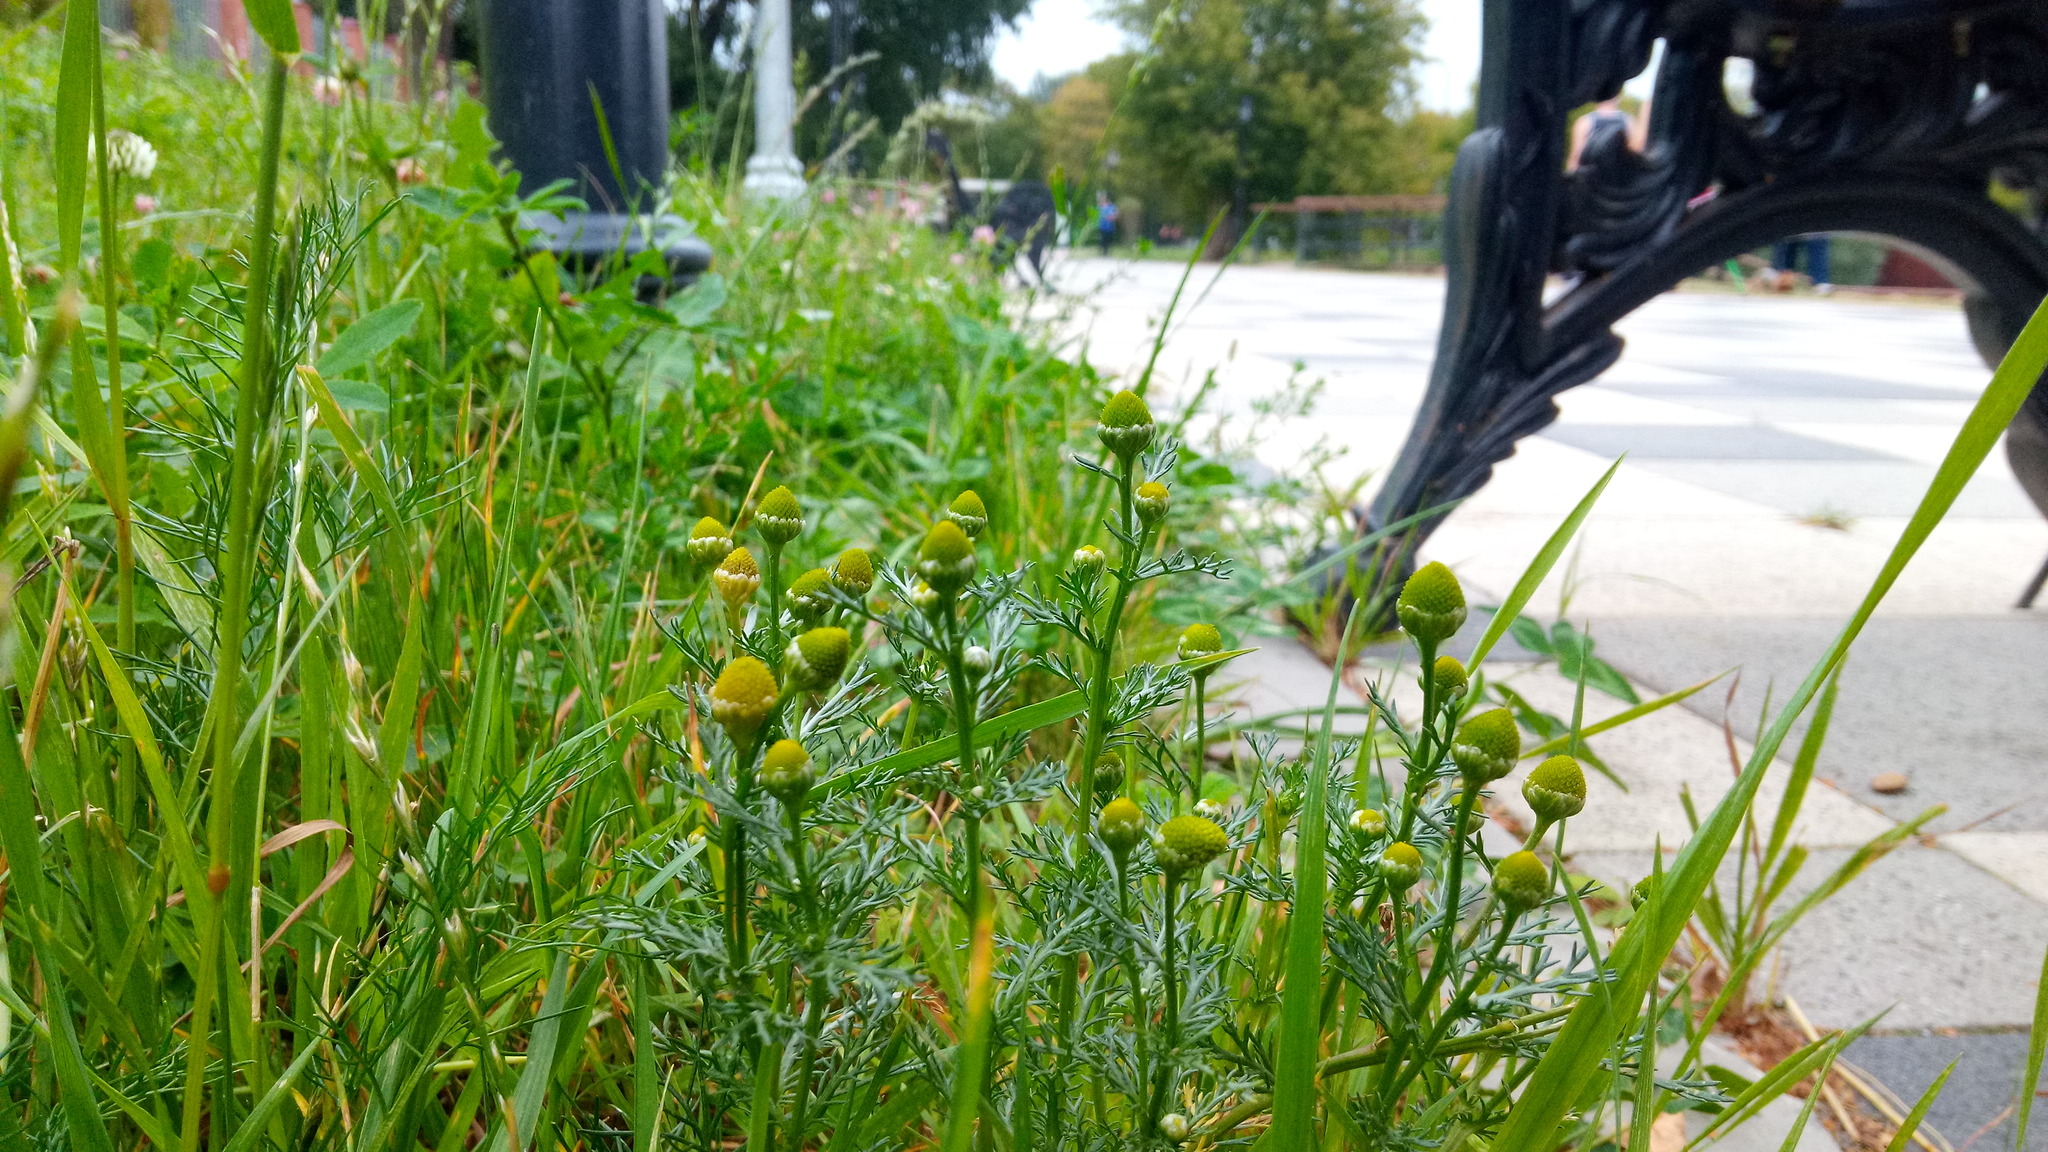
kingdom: Plantae
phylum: Tracheophyta
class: Magnoliopsida
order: Asterales
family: Asteraceae
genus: Matricaria
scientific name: Matricaria discoidea
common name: Disc mayweed
